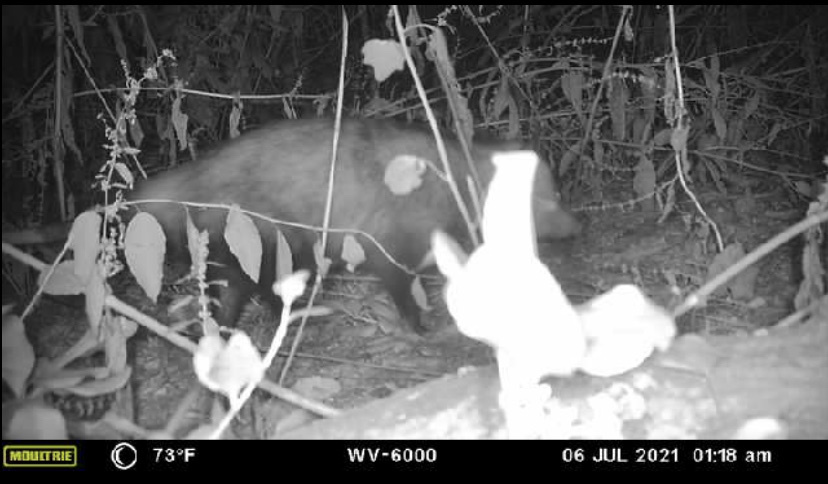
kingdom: Animalia
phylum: Chordata
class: Mammalia
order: Didelphimorphia
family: Didelphidae
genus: Didelphis
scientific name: Didelphis virginiana
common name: Virginia opossum
